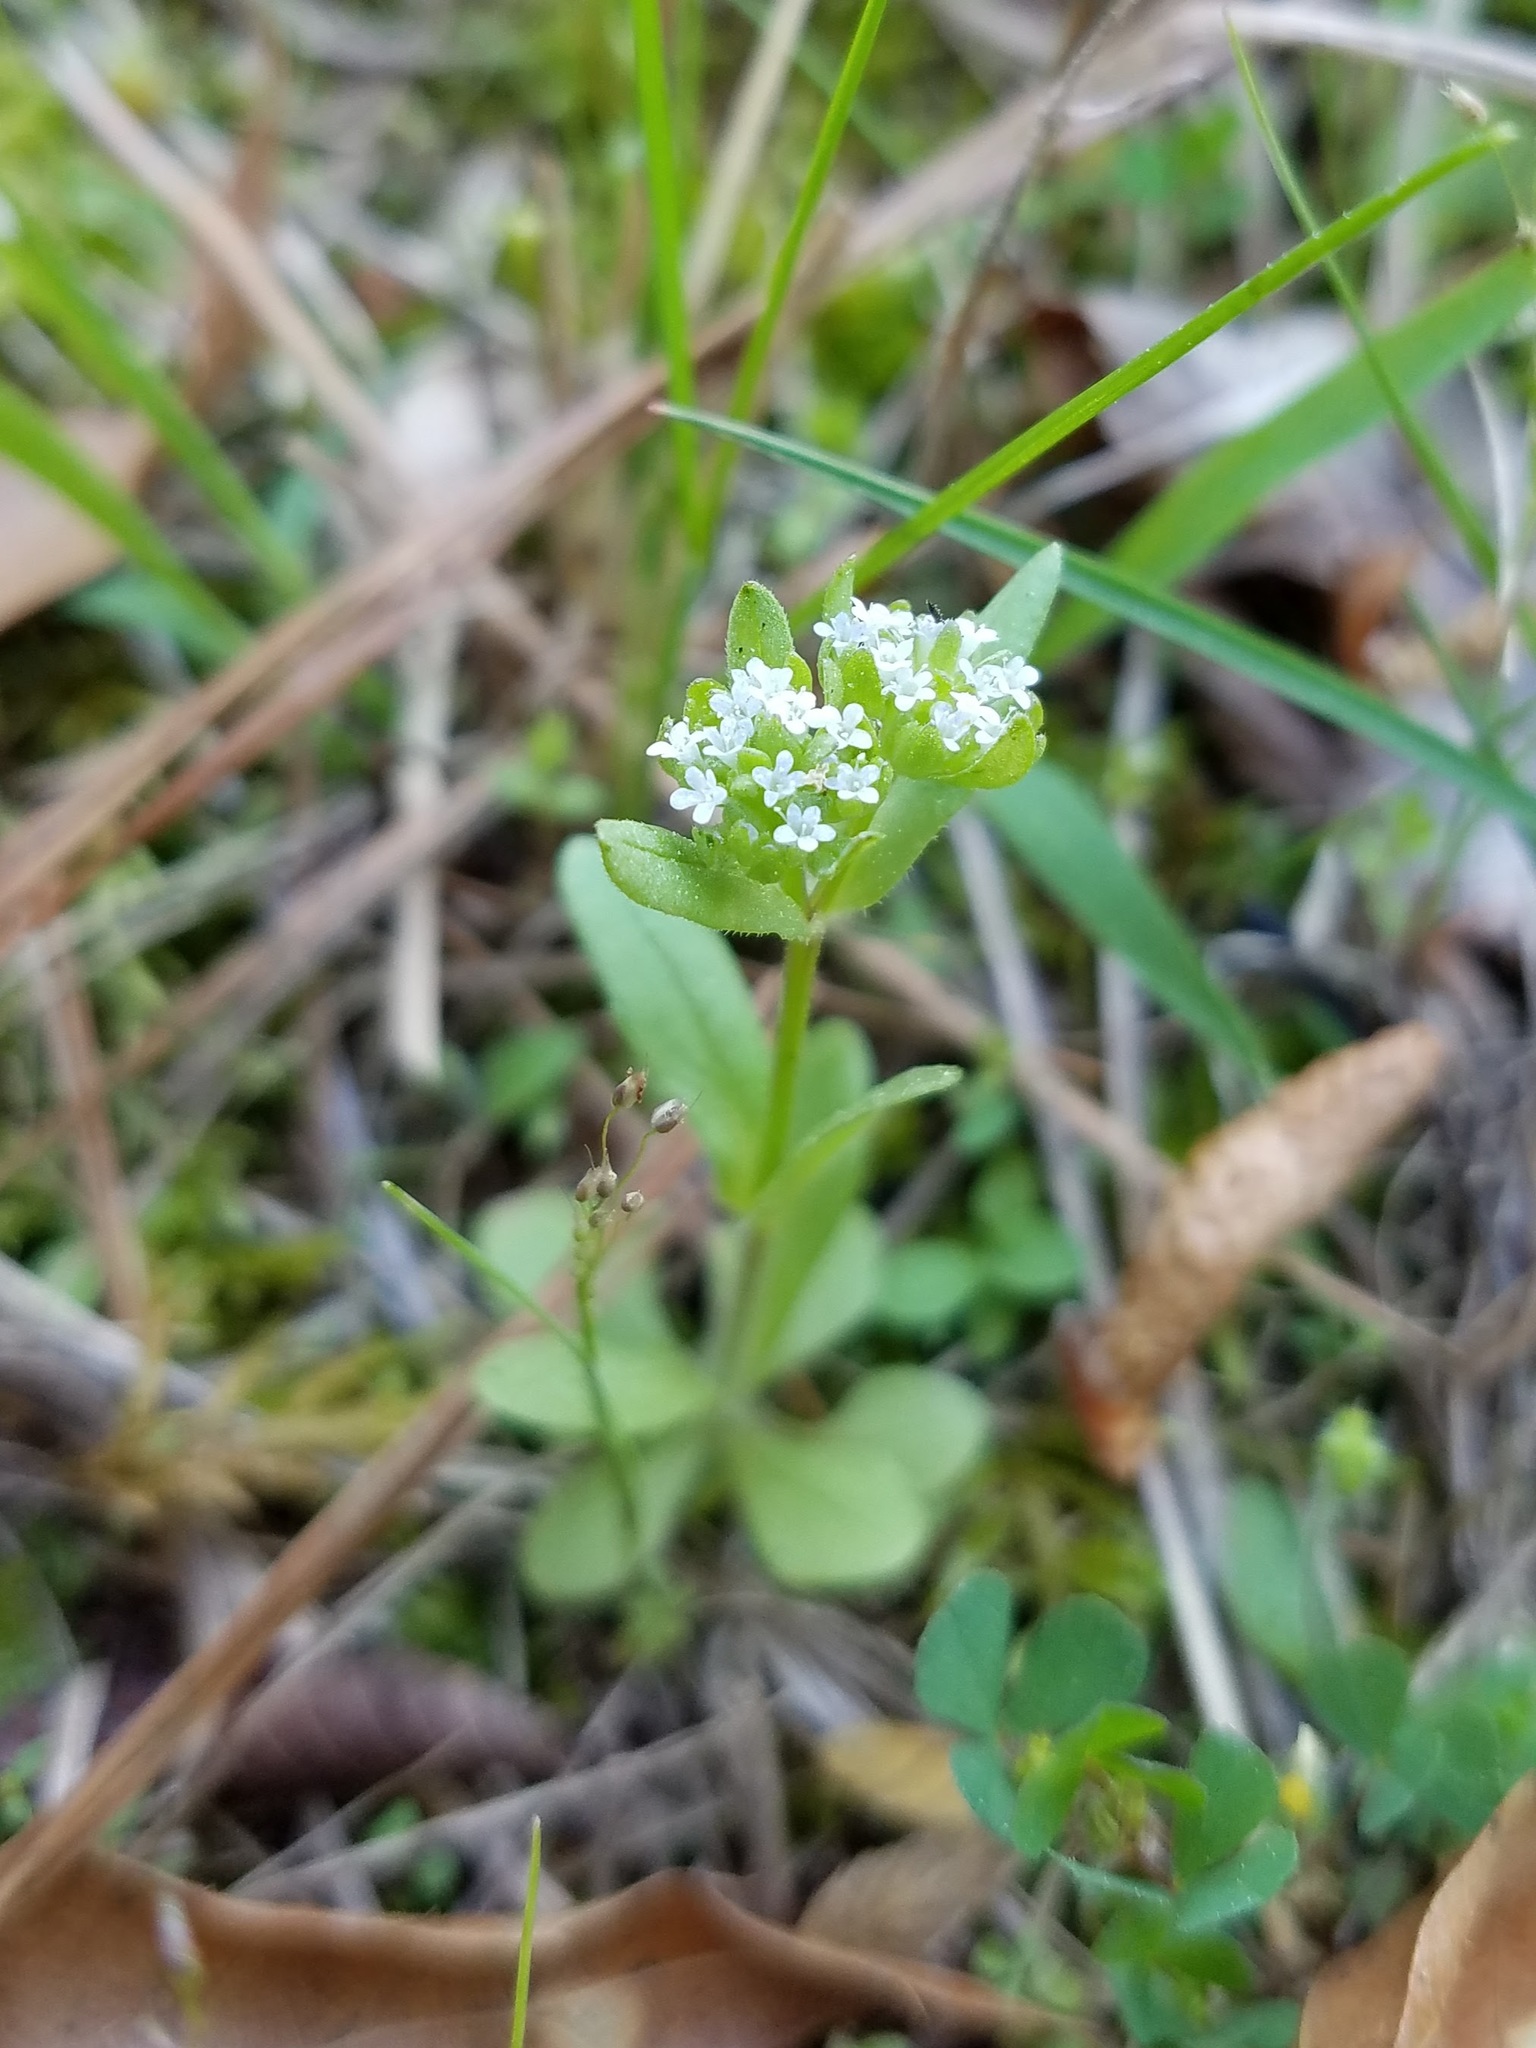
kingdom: Plantae
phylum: Tracheophyta
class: Magnoliopsida
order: Dipsacales
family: Caprifoliaceae
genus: Valerianella
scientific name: Valerianella radiata
